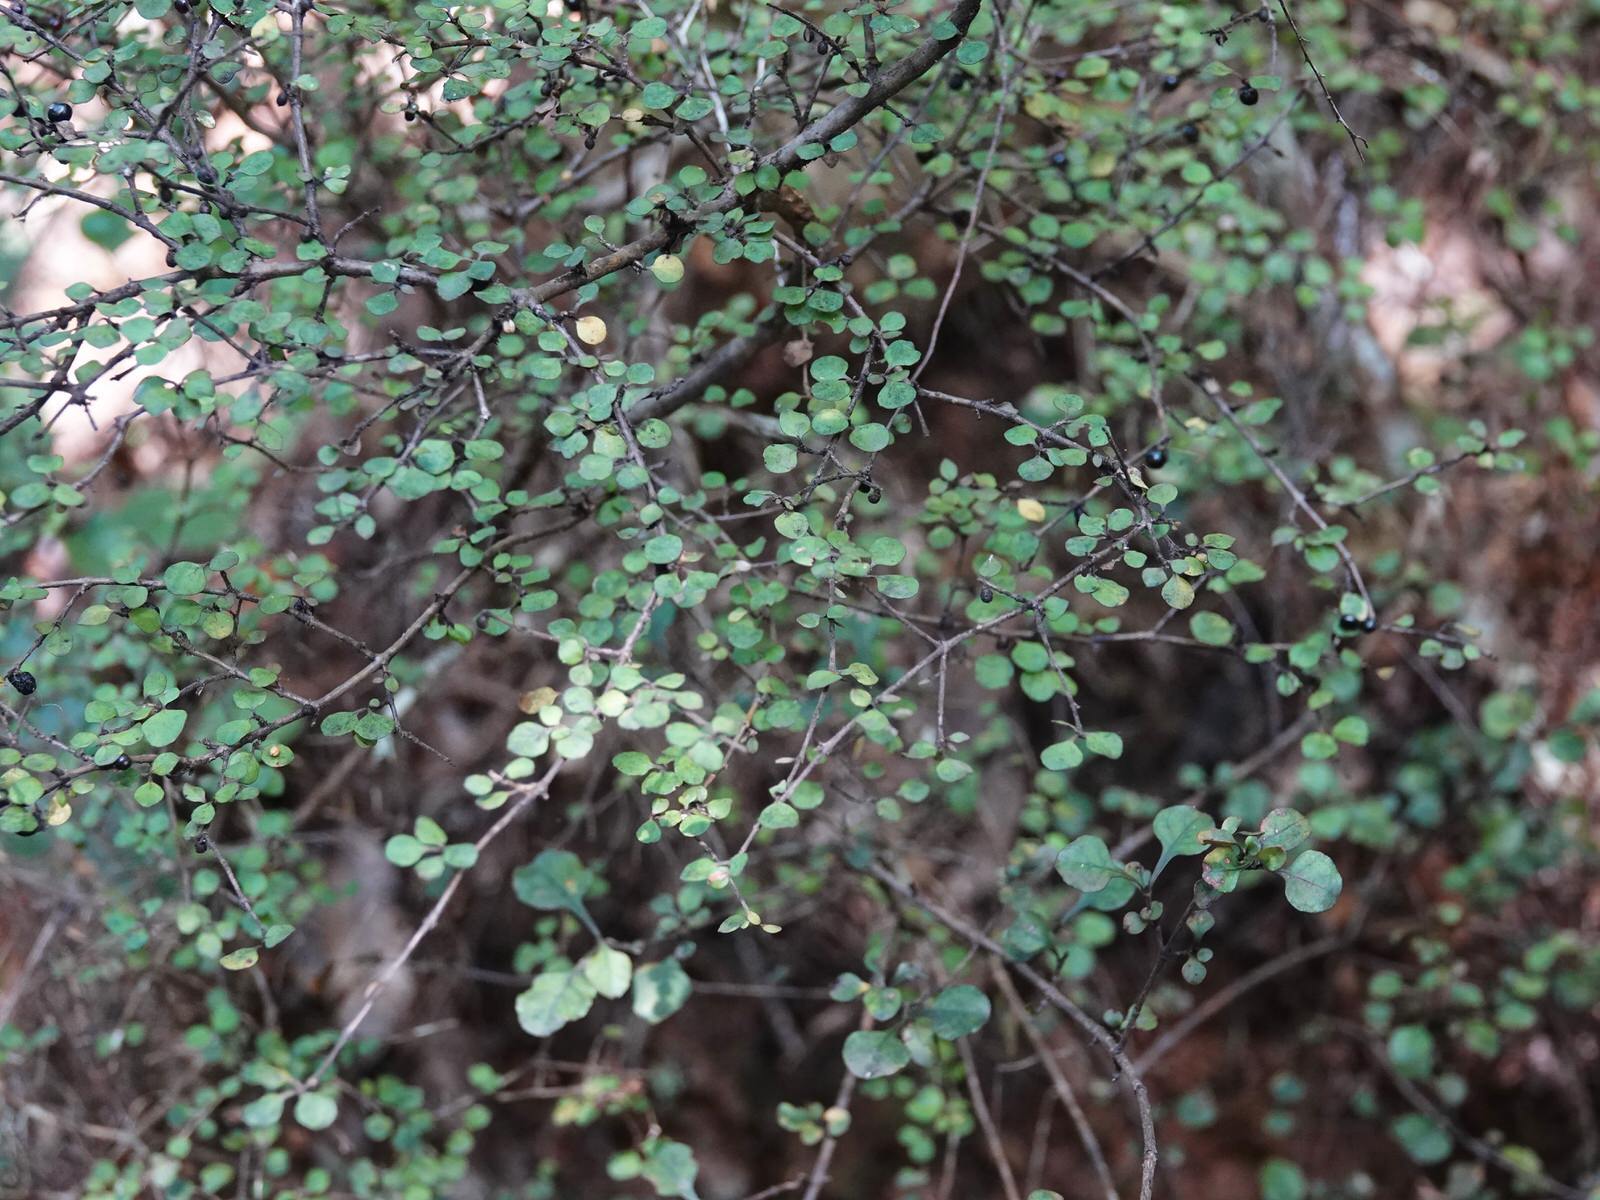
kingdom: Plantae
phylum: Tracheophyta
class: Magnoliopsida
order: Gentianales
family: Rubiaceae
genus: Coprosma
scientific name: Coprosma rhamnoides
